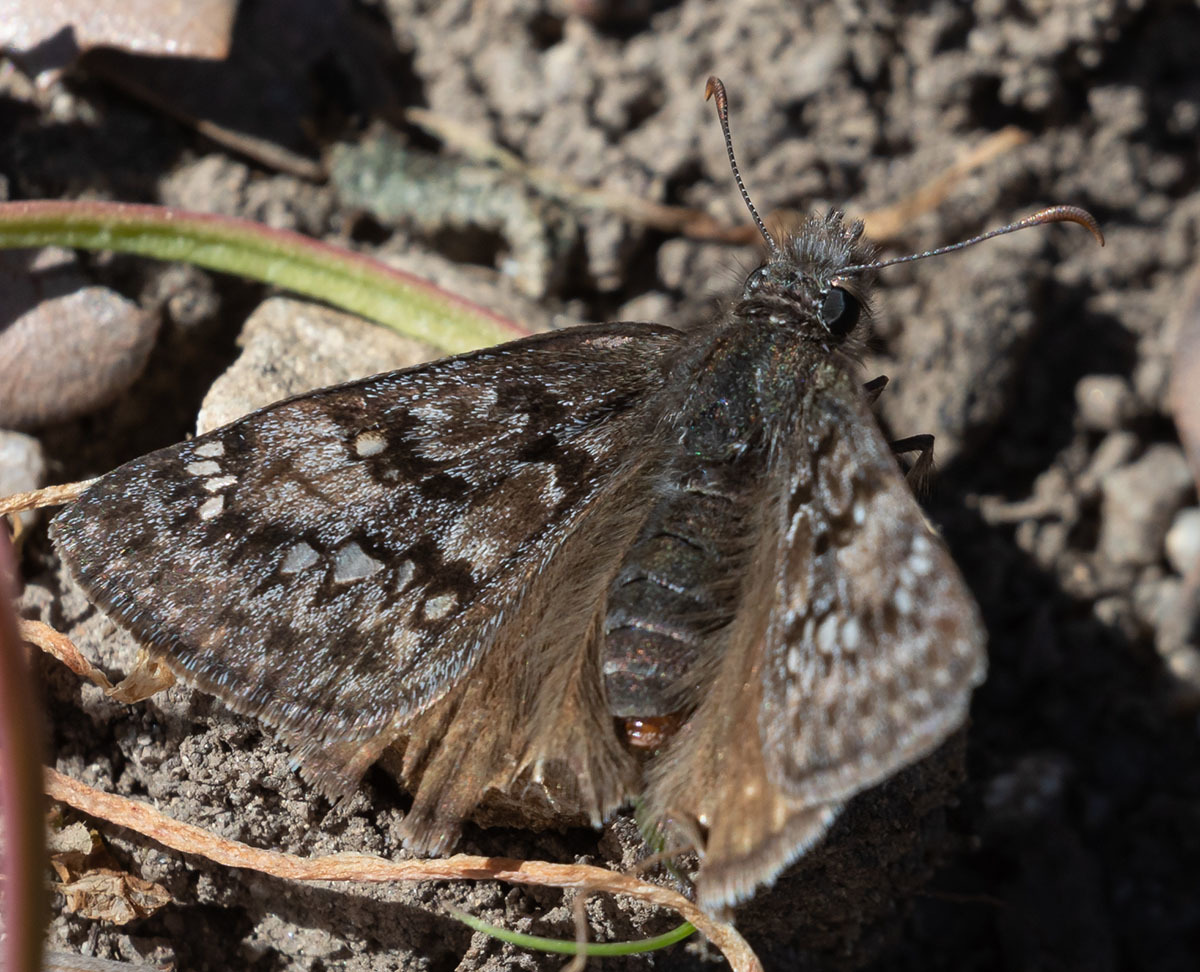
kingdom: Animalia
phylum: Arthropoda
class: Insecta
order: Lepidoptera
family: Hesperiidae
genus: Erynnis
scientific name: Erynnis propertius
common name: Propertius duskywing
